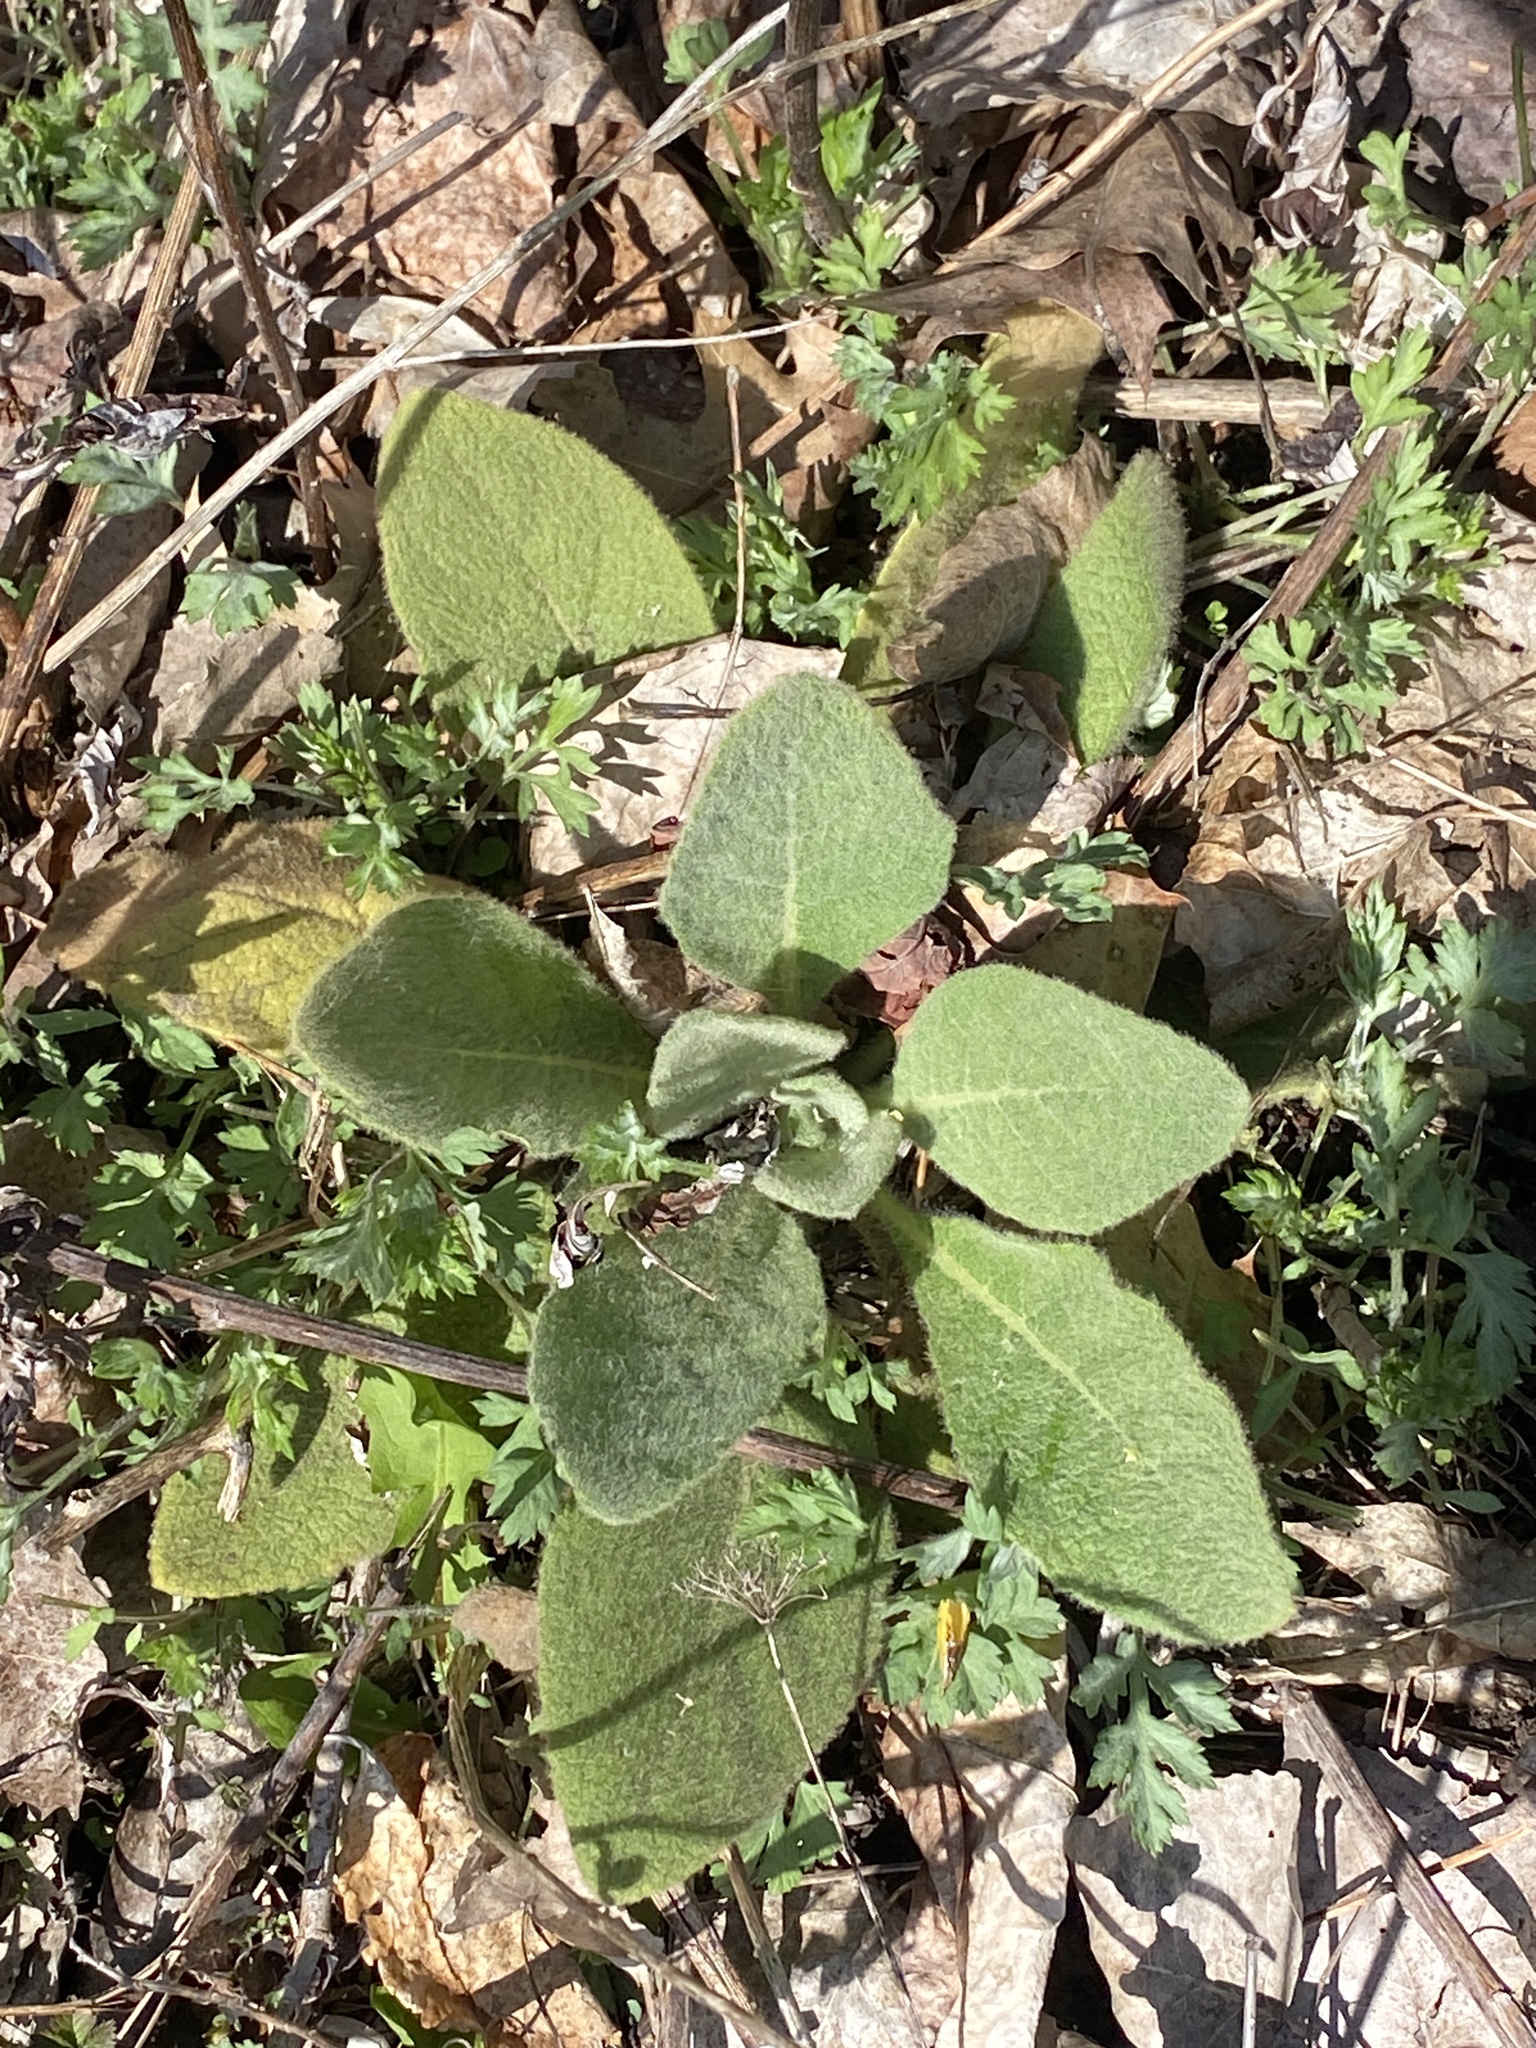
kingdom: Plantae
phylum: Tracheophyta
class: Magnoliopsida
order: Lamiales
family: Scrophulariaceae
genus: Verbascum
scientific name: Verbascum thapsus
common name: Common mullein
